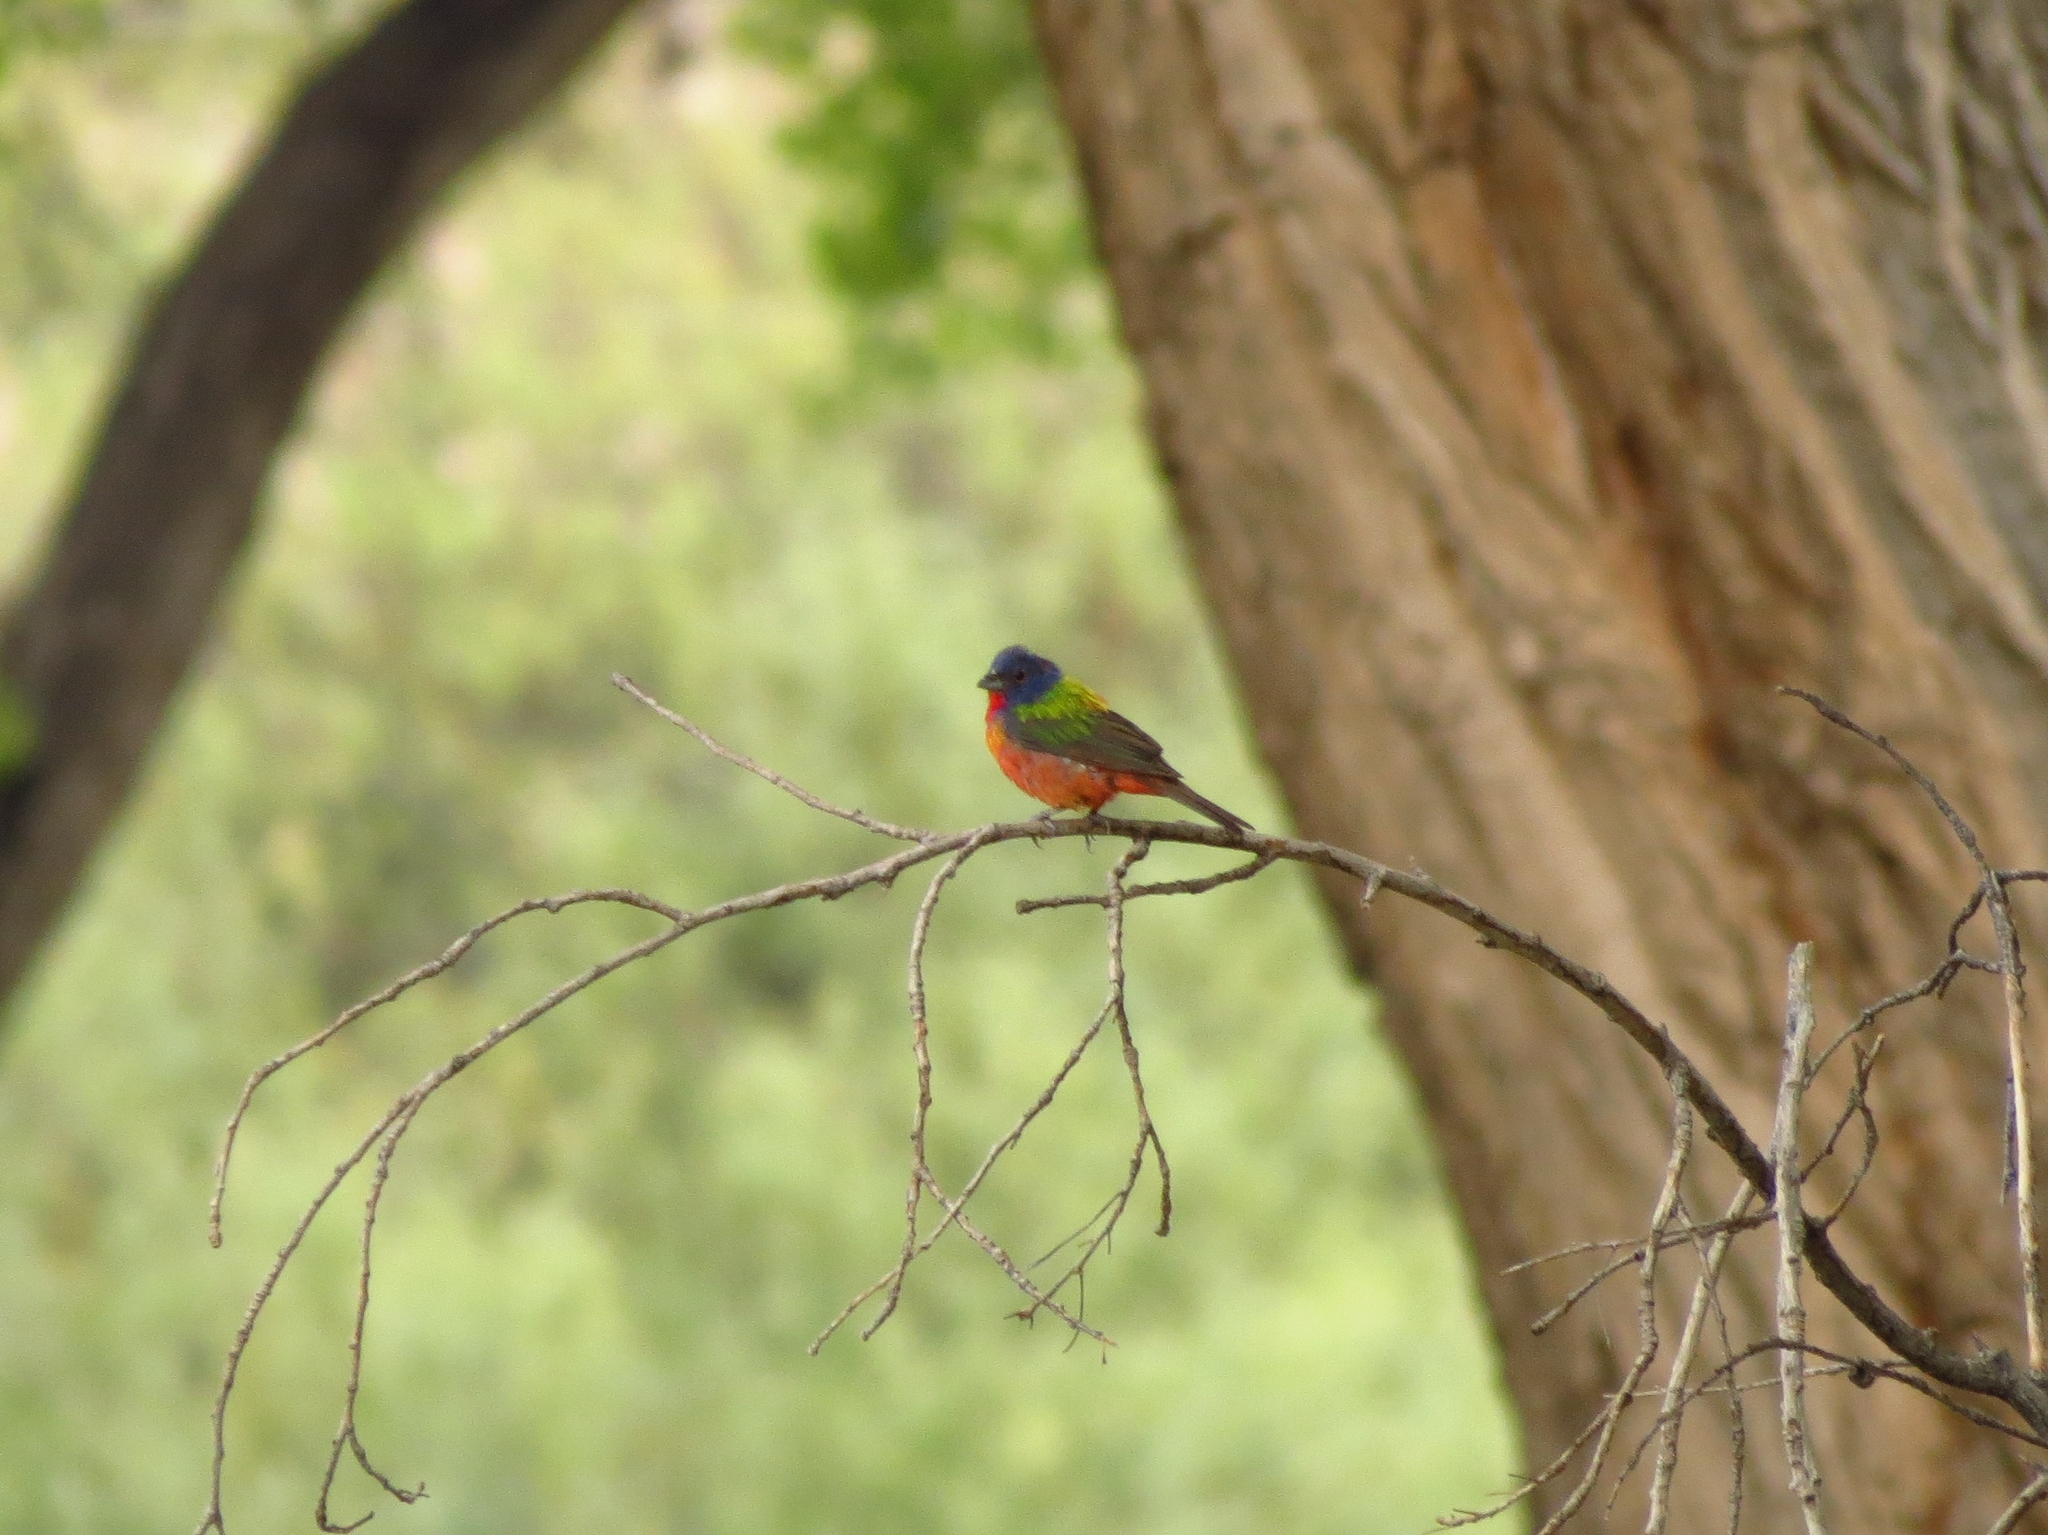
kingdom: Animalia
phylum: Chordata
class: Aves
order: Passeriformes
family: Cardinalidae
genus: Passerina
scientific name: Passerina ciris
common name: Painted bunting
